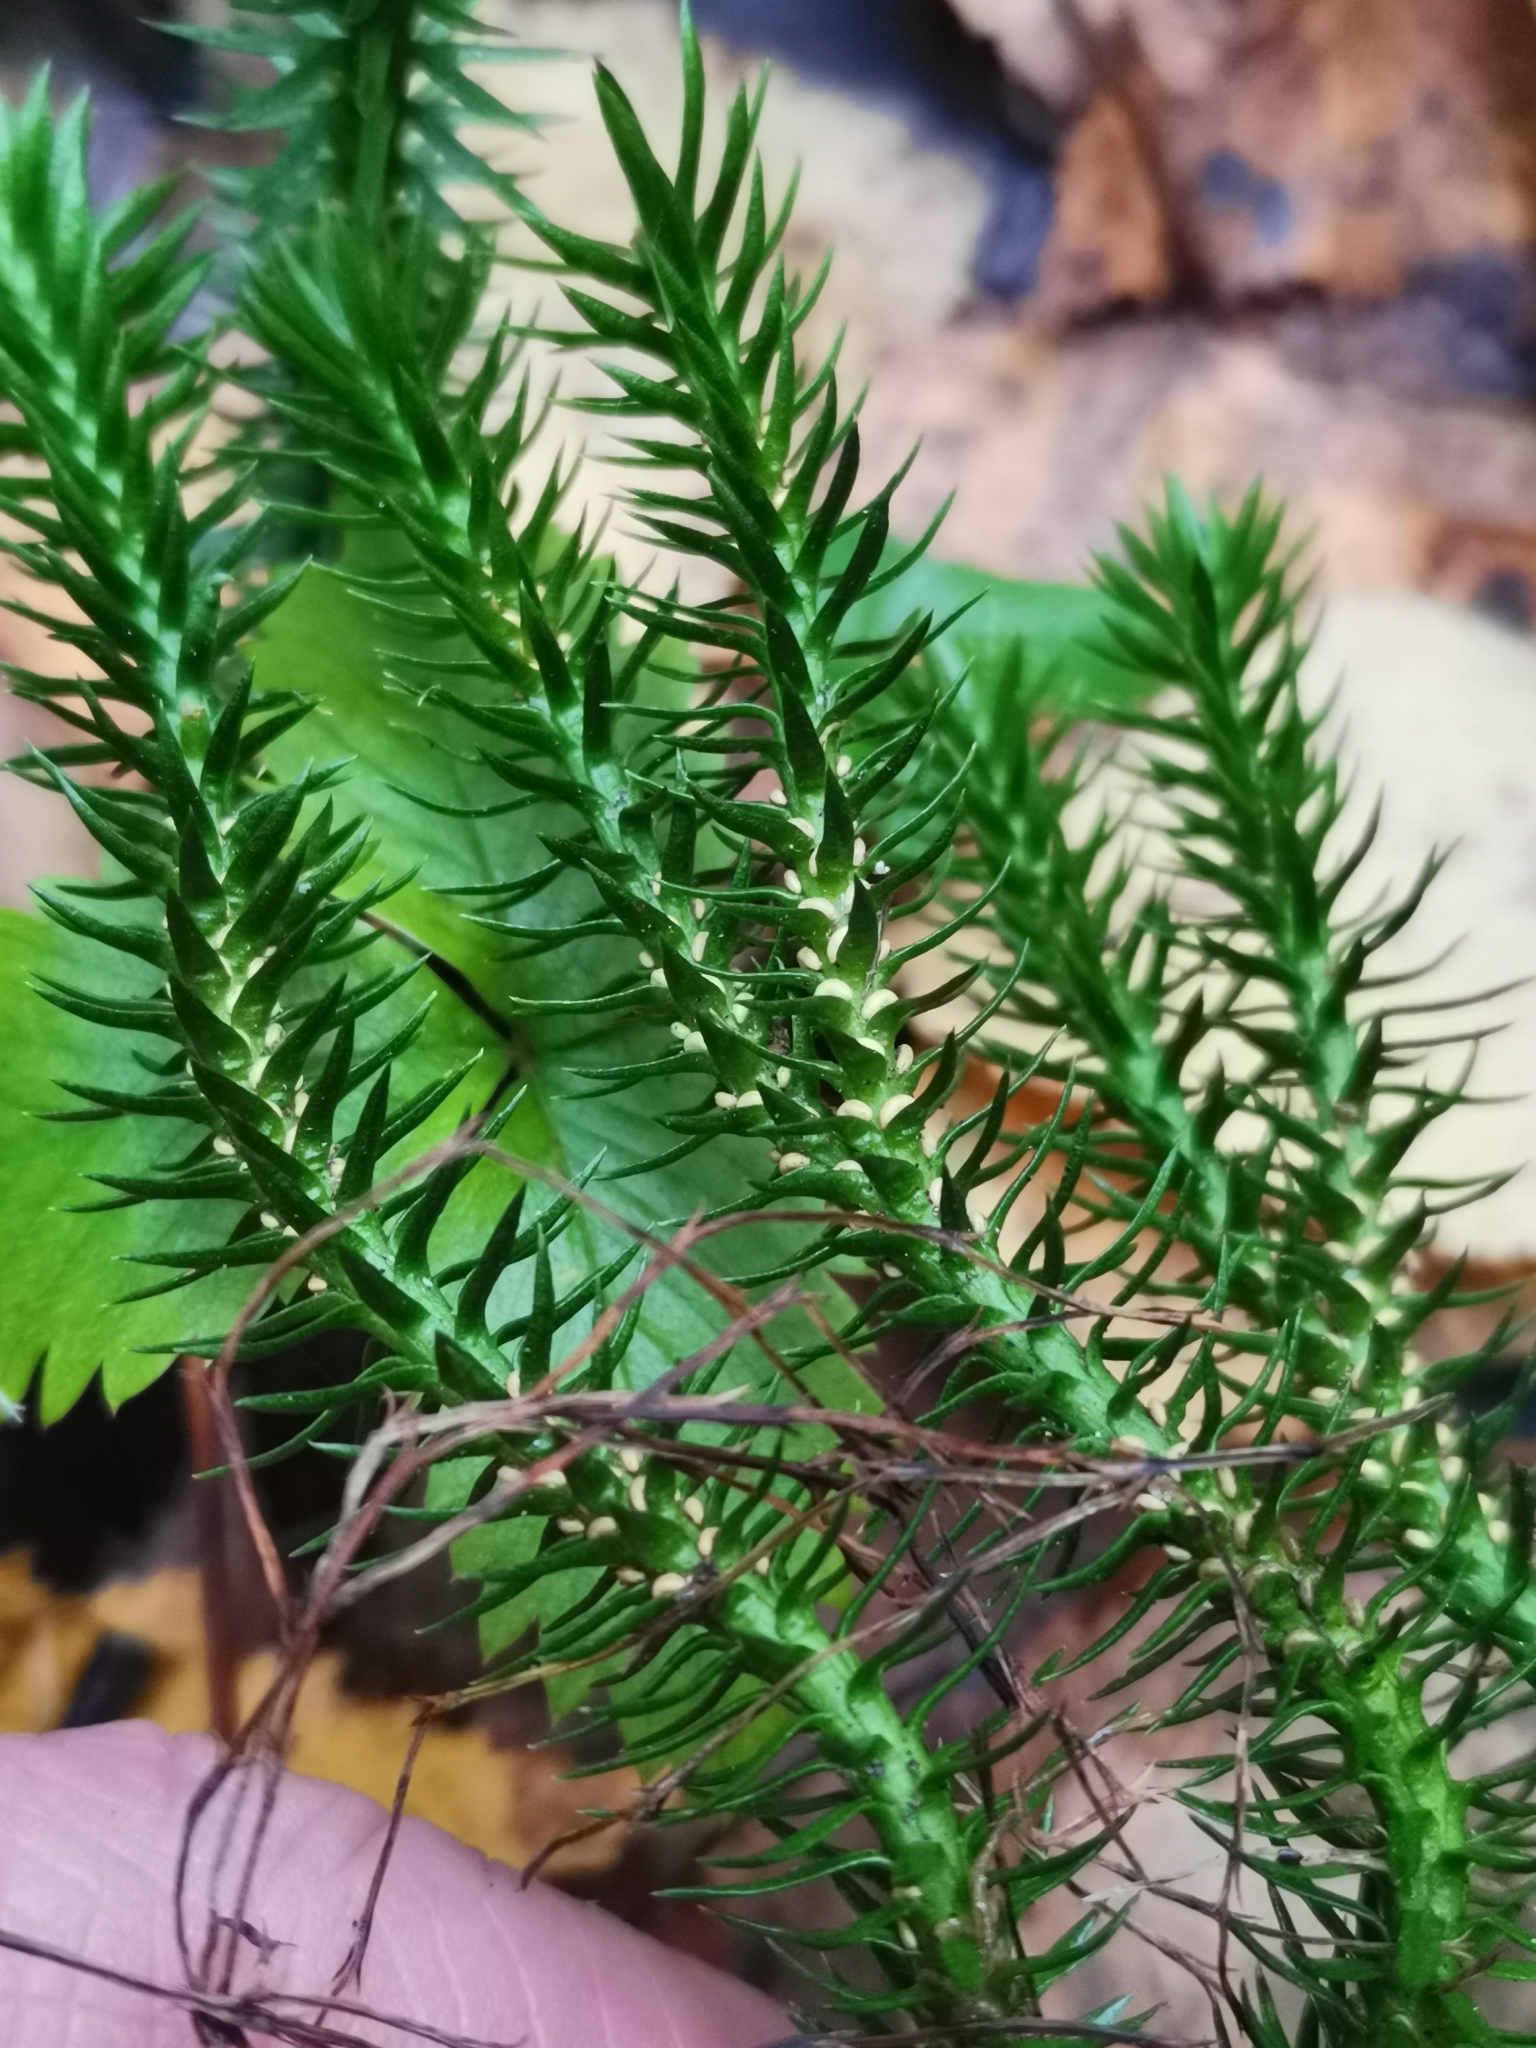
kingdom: Plantae
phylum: Tracheophyta
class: Lycopodiopsida
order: Lycopodiales
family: Lycopodiaceae
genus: Huperzia
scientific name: Huperzia selago
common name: Northern firmoss
